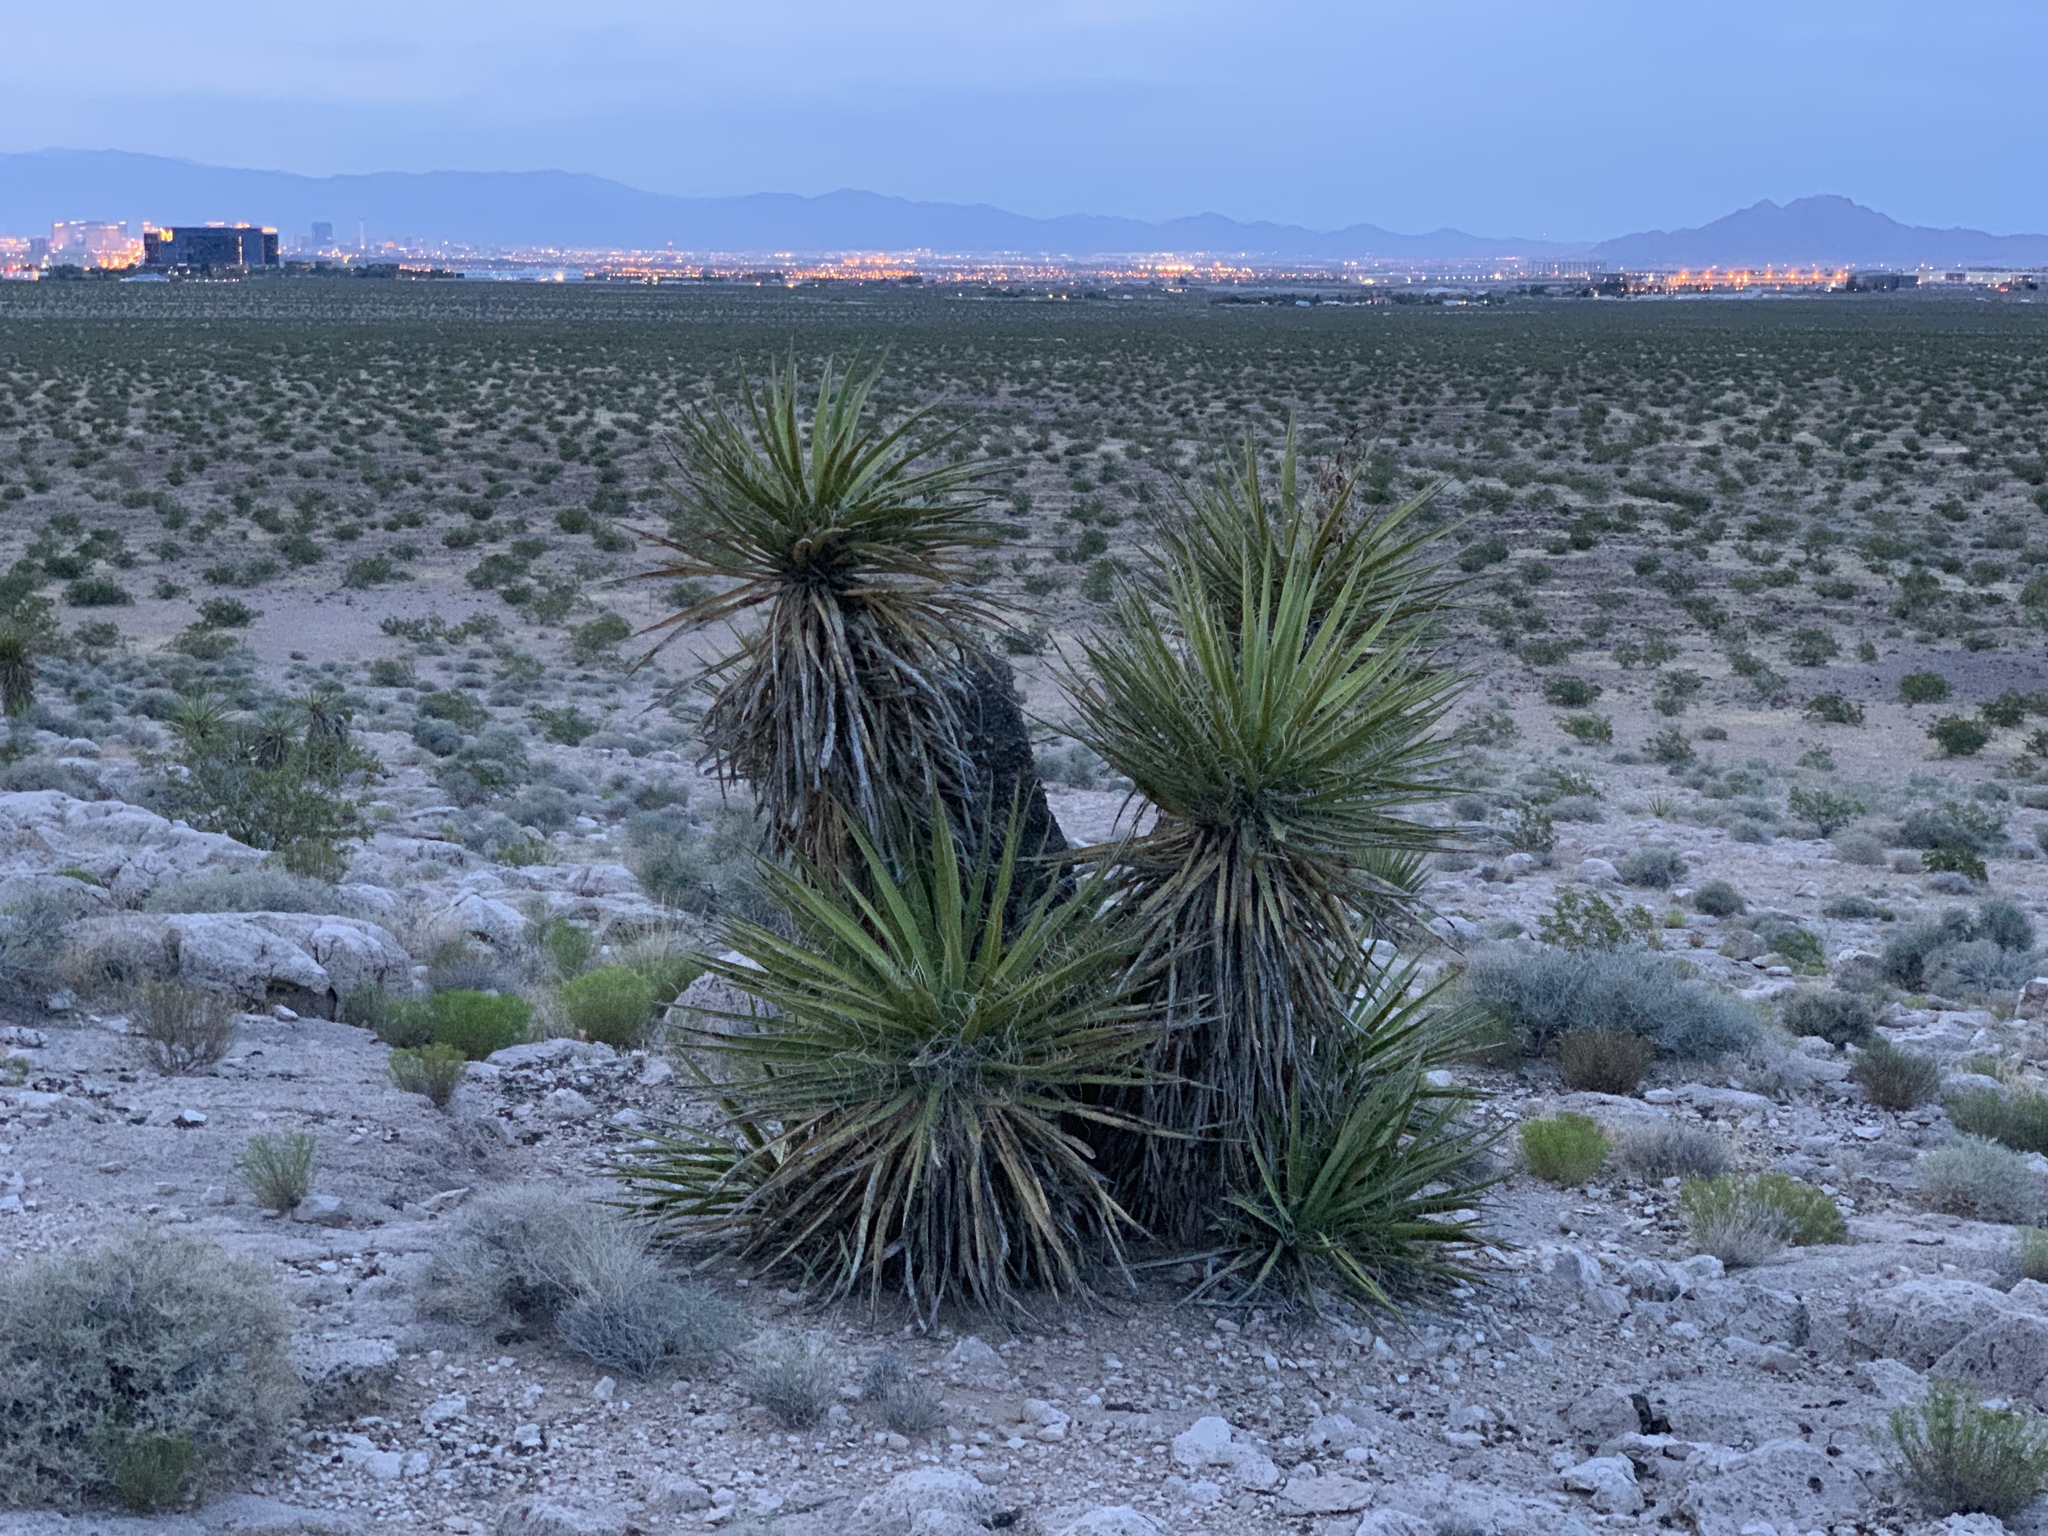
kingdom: Plantae
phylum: Tracheophyta
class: Liliopsida
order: Asparagales
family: Asparagaceae
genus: Yucca
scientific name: Yucca schidigera
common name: Mojave yucca
